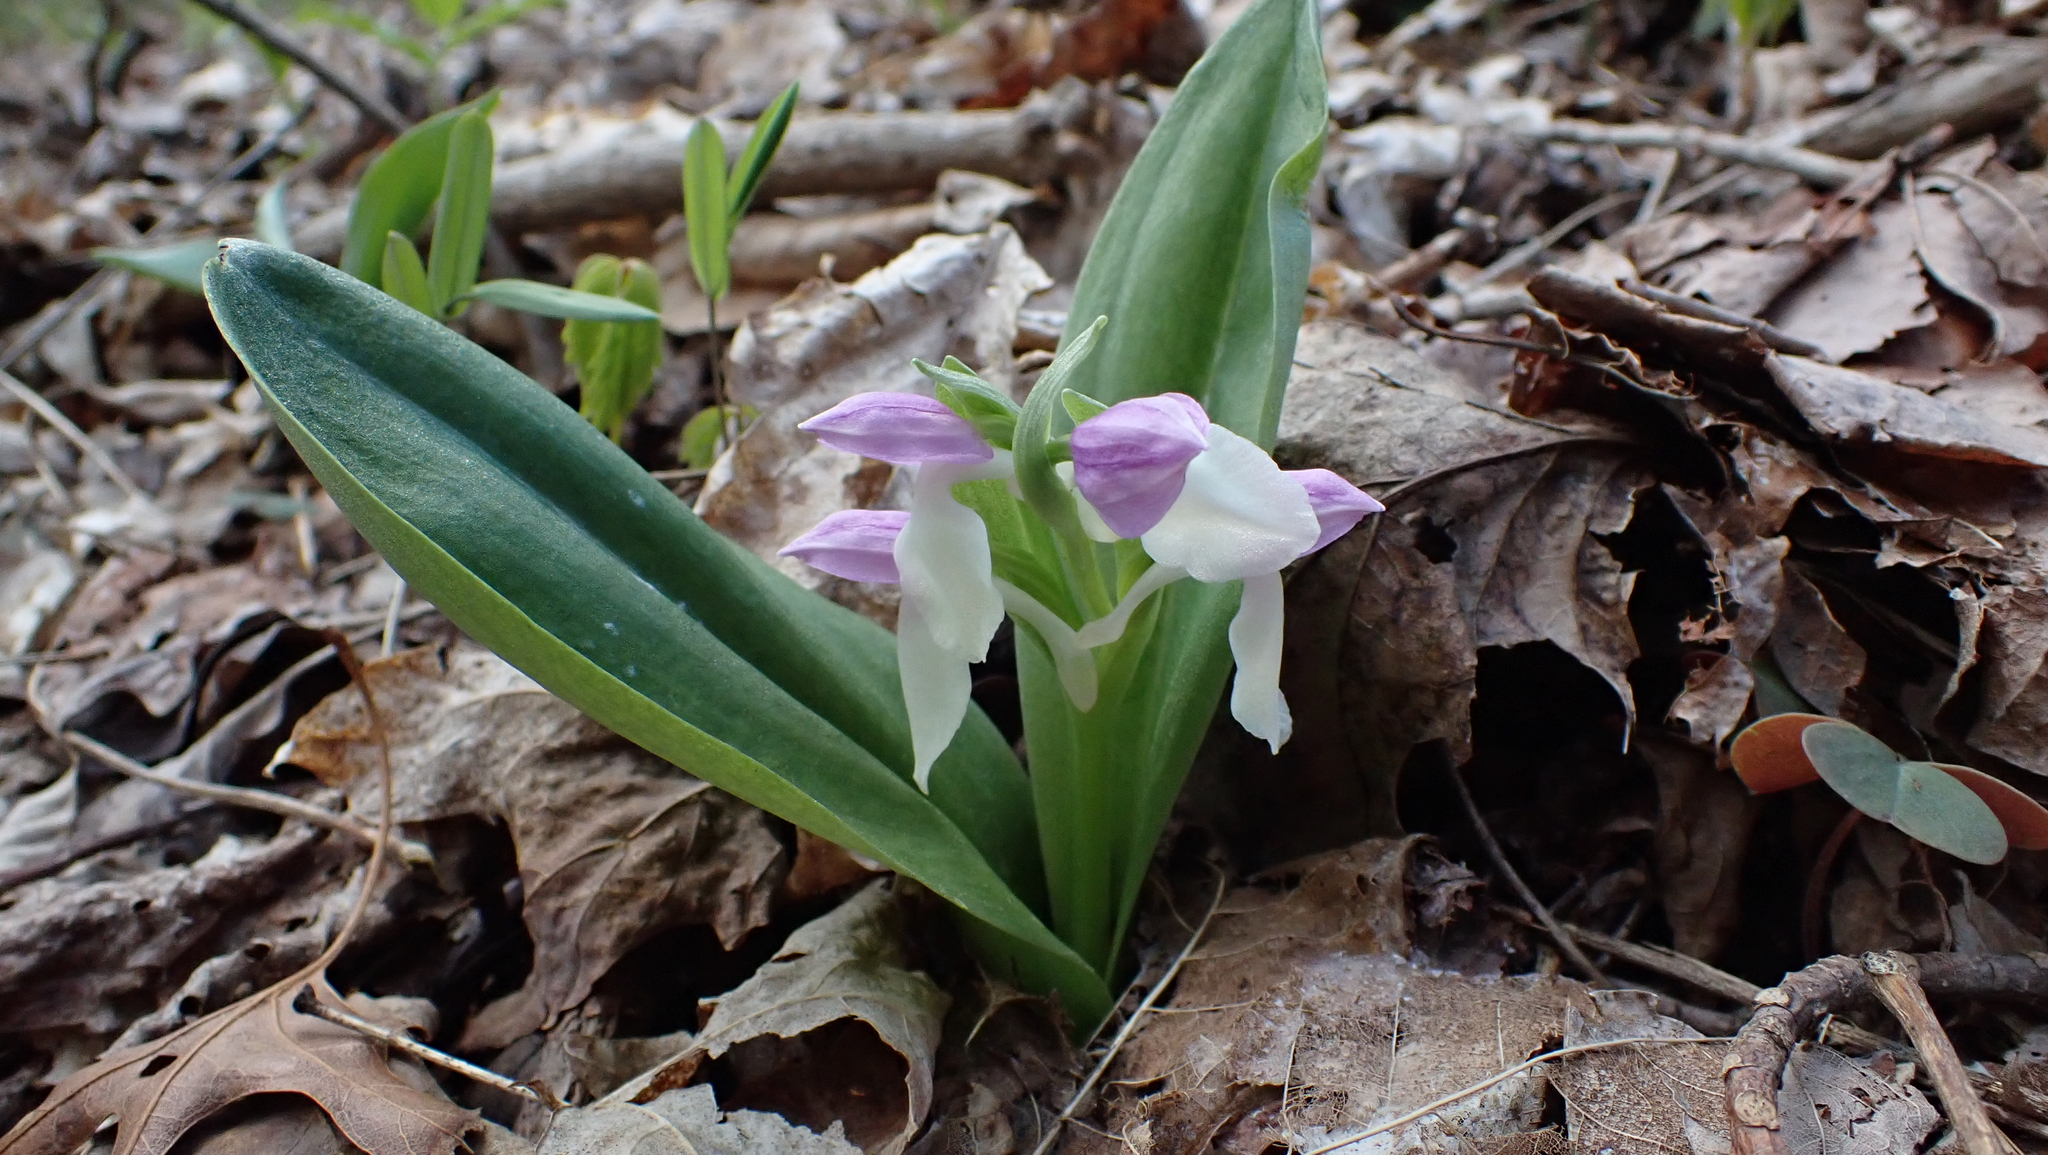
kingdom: Plantae
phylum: Tracheophyta
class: Liliopsida
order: Asparagales
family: Orchidaceae
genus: Galearis
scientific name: Galearis spectabilis
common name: Purple-hooded orchis
